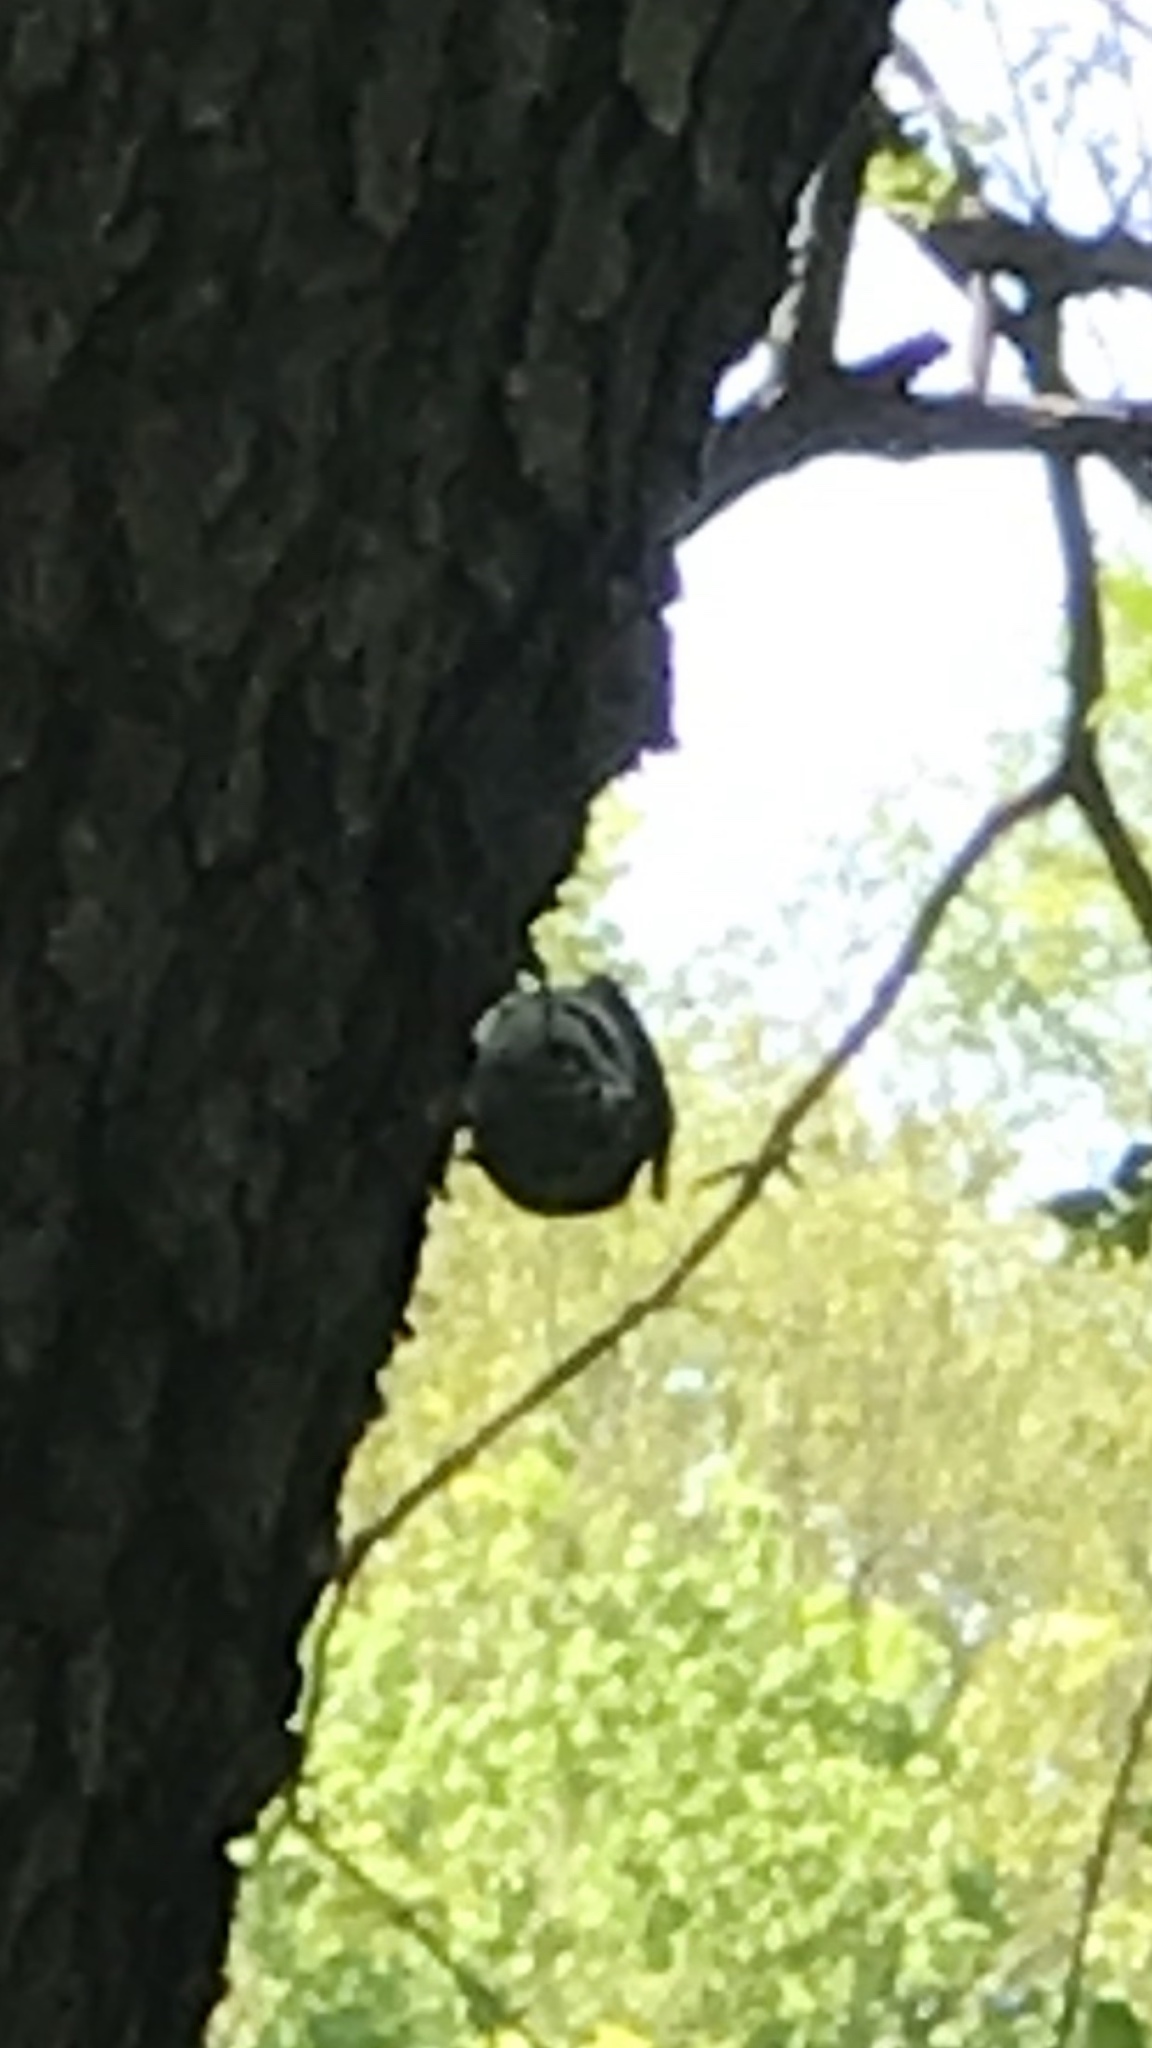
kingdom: Animalia
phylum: Chordata
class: Aves
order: Passeriformes
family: Parulidae
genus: Mniotilta
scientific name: Mniotilta varia
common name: Black-and-white warbler
